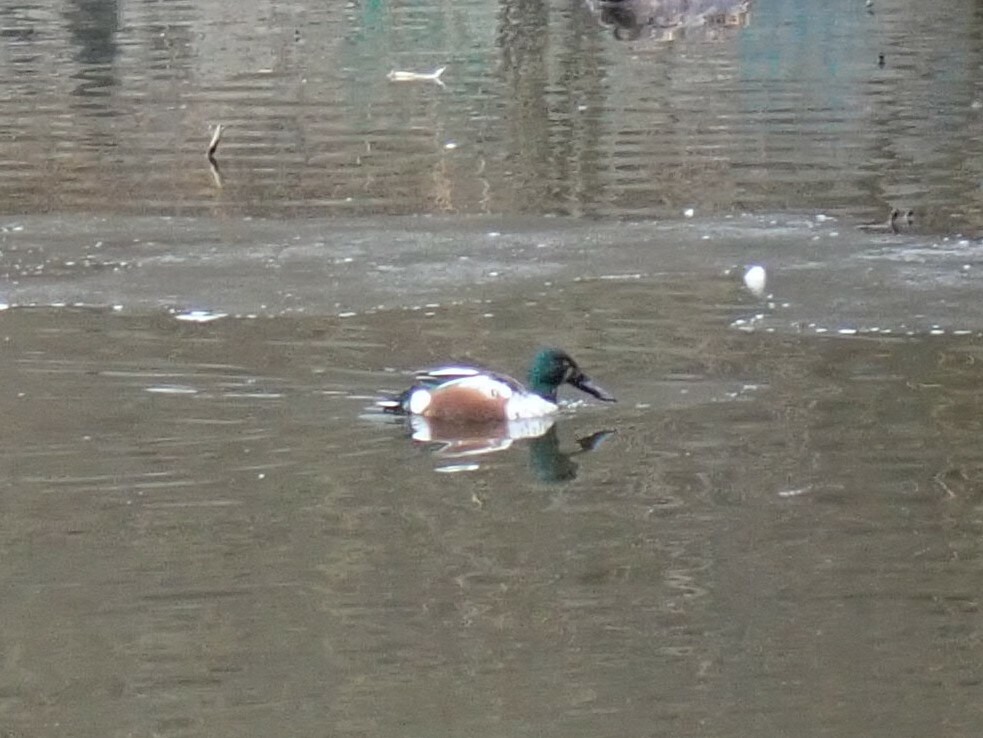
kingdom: Animalia
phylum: Chordata
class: Aves
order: Anseriformes
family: Anatidae
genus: Spatula
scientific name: Spatula clypeata
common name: Northern shoveler
